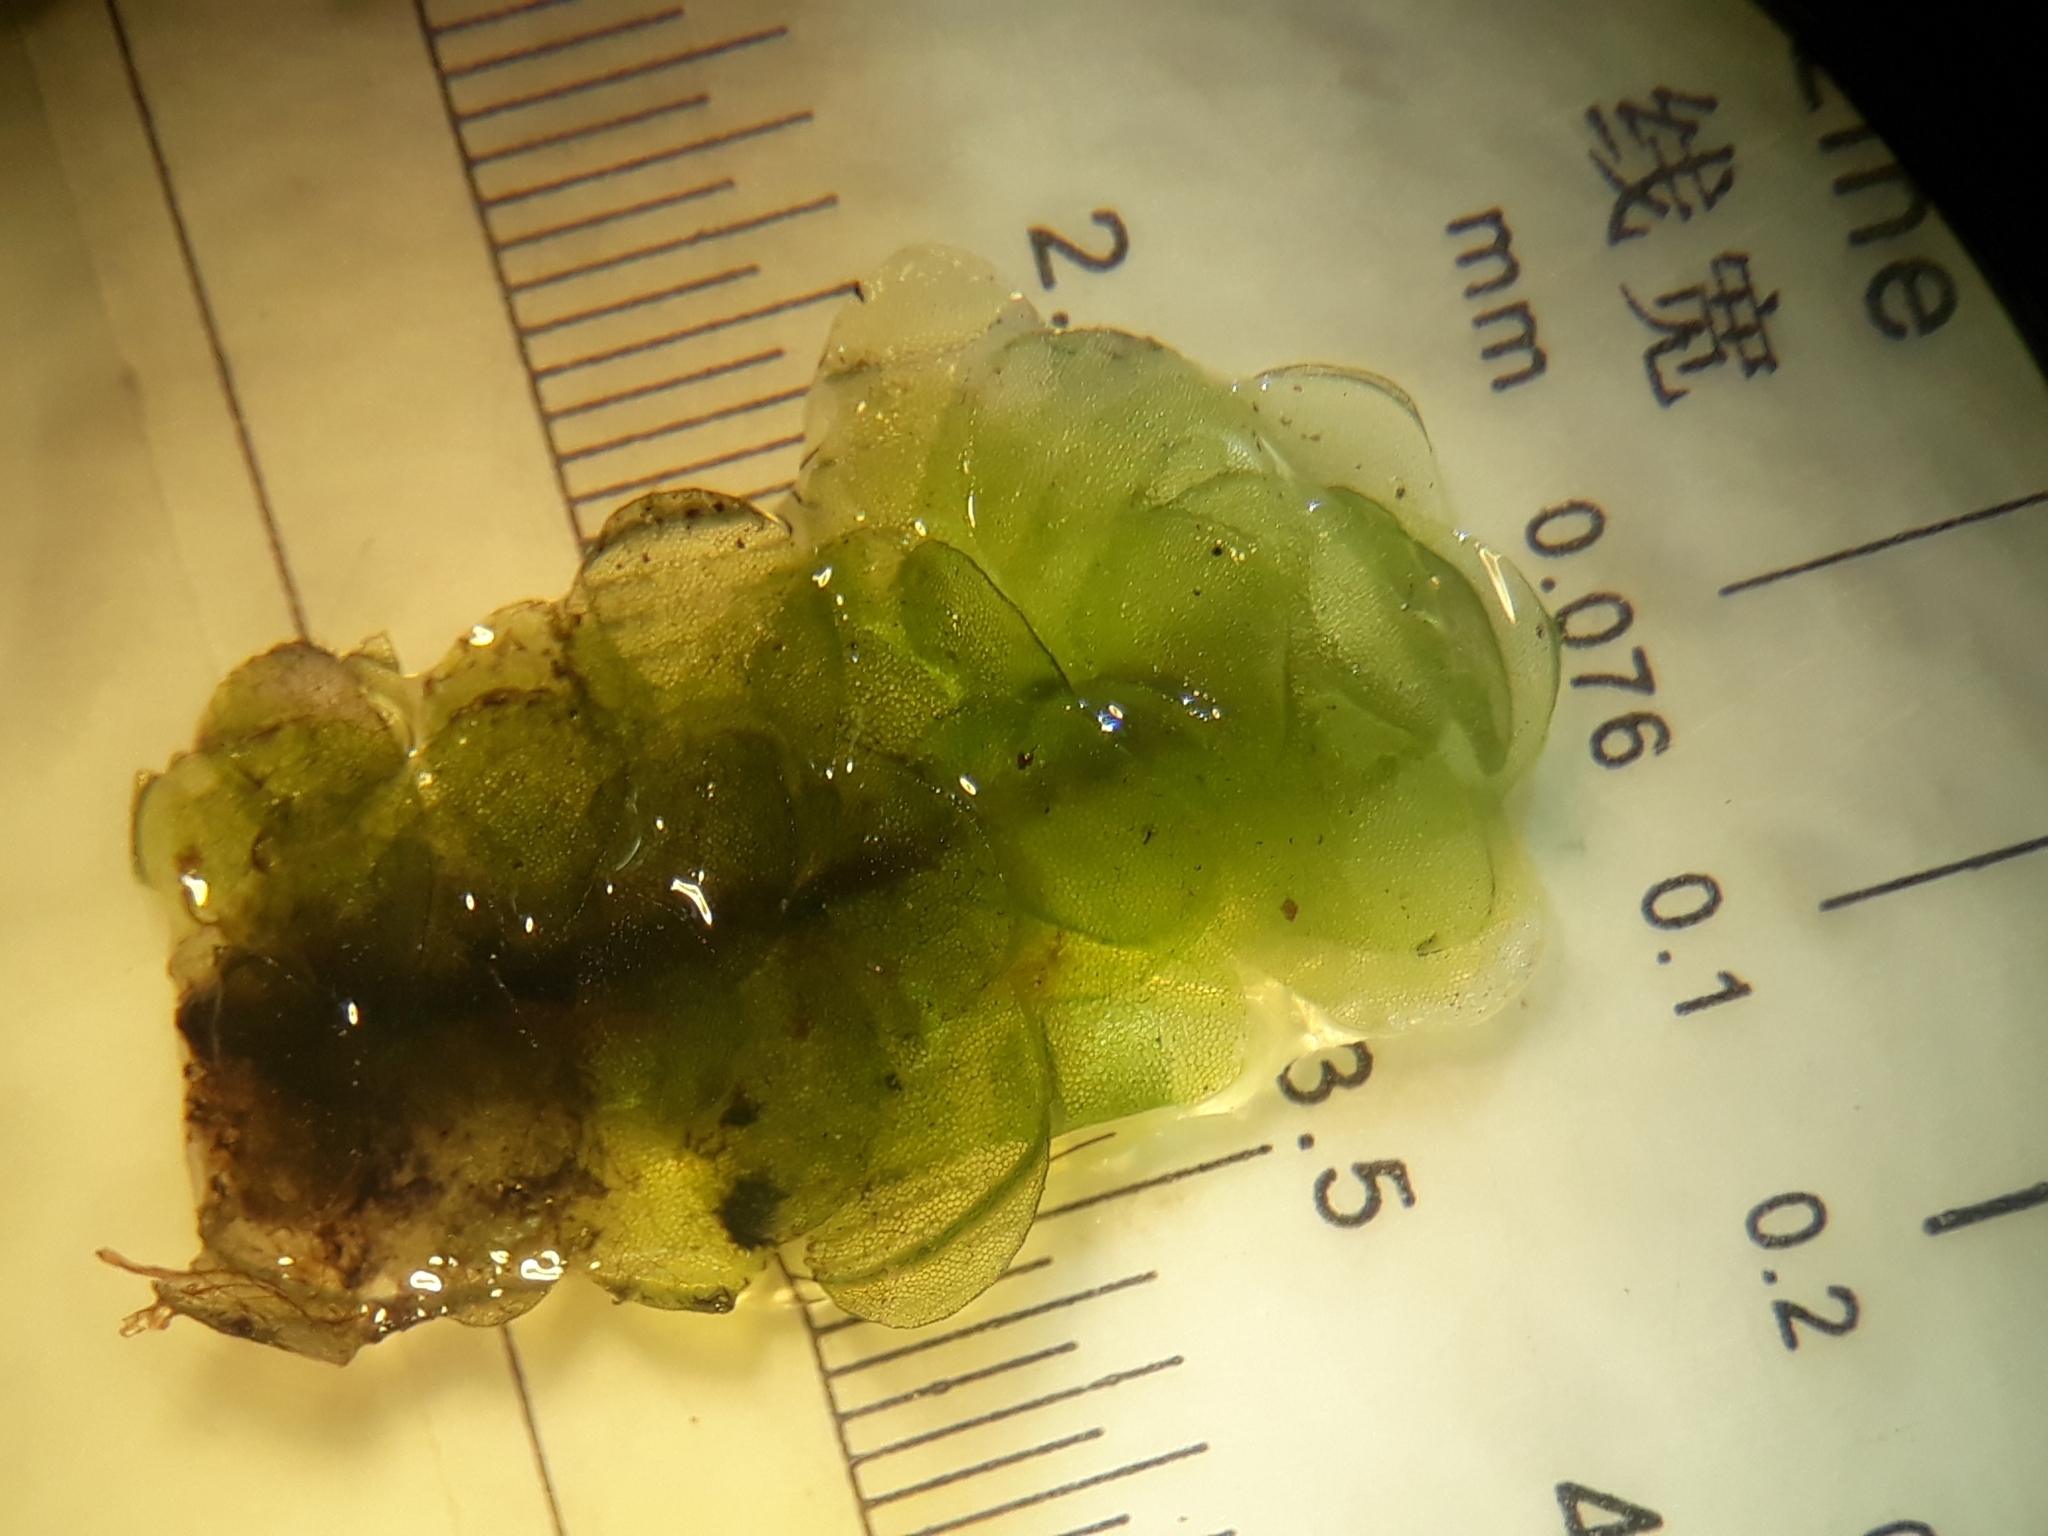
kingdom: Plantae
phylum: Bryophyta
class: Bryopsida
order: Hookeriales
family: Daltoniaceae
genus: Achrophyllum
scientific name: Achrophyllum quadrifarium
